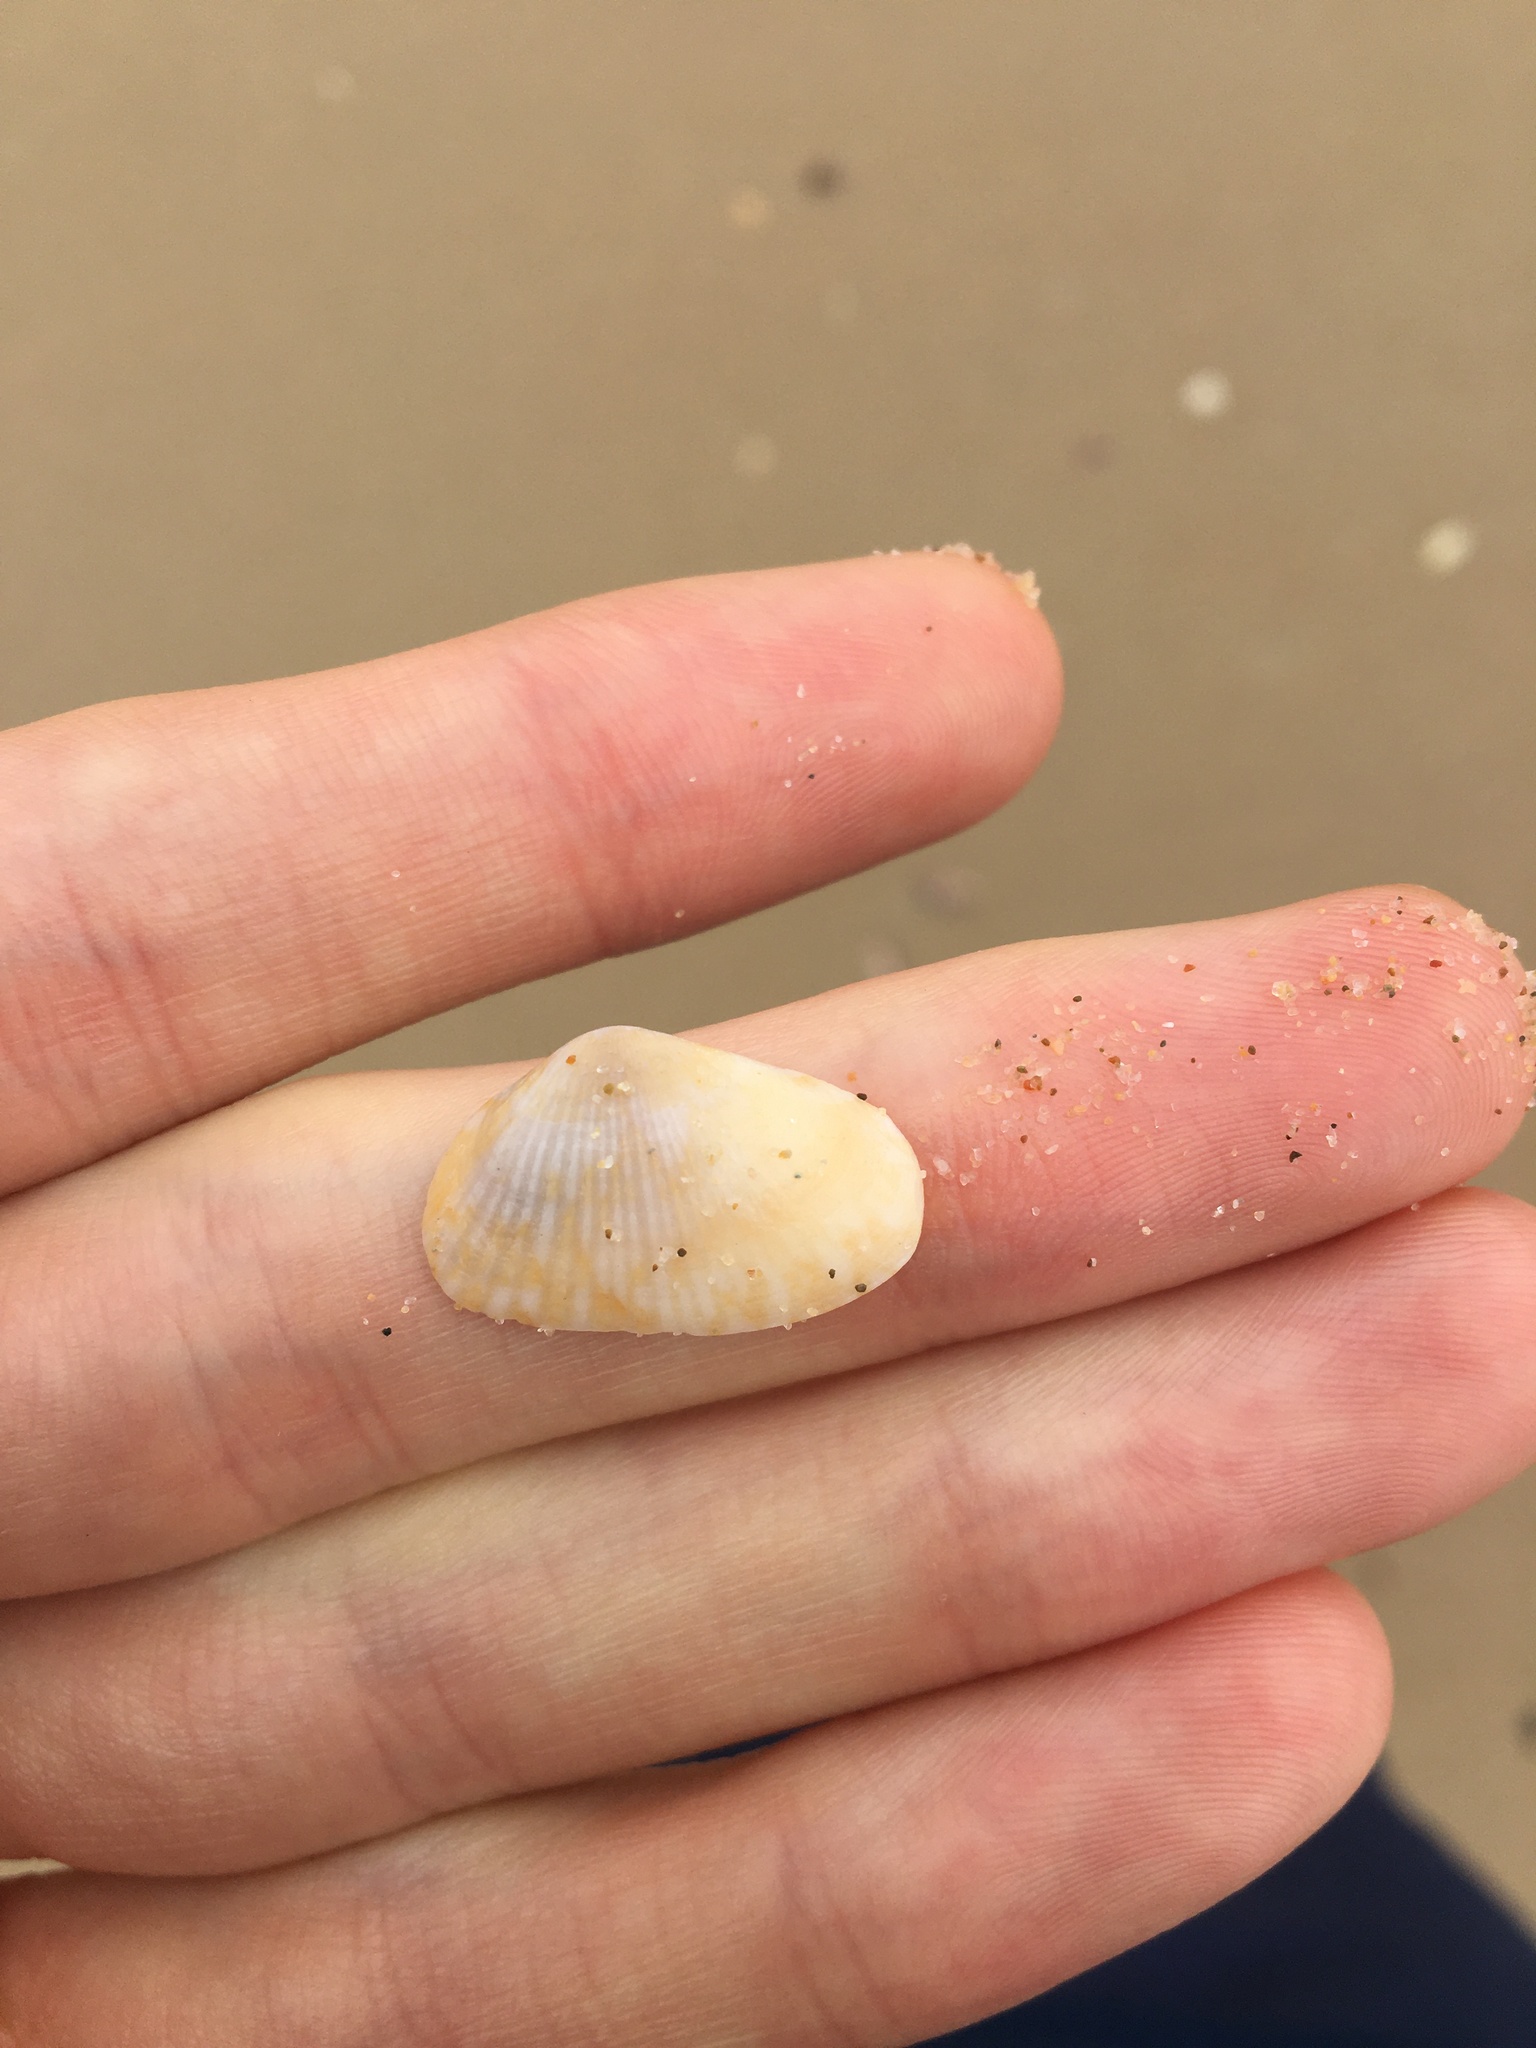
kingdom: Animalia
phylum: Mollusca
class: Bivalvia
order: Venerida
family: Hemidonacidae
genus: Hemidonax
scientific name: Hemidonax dactylus
